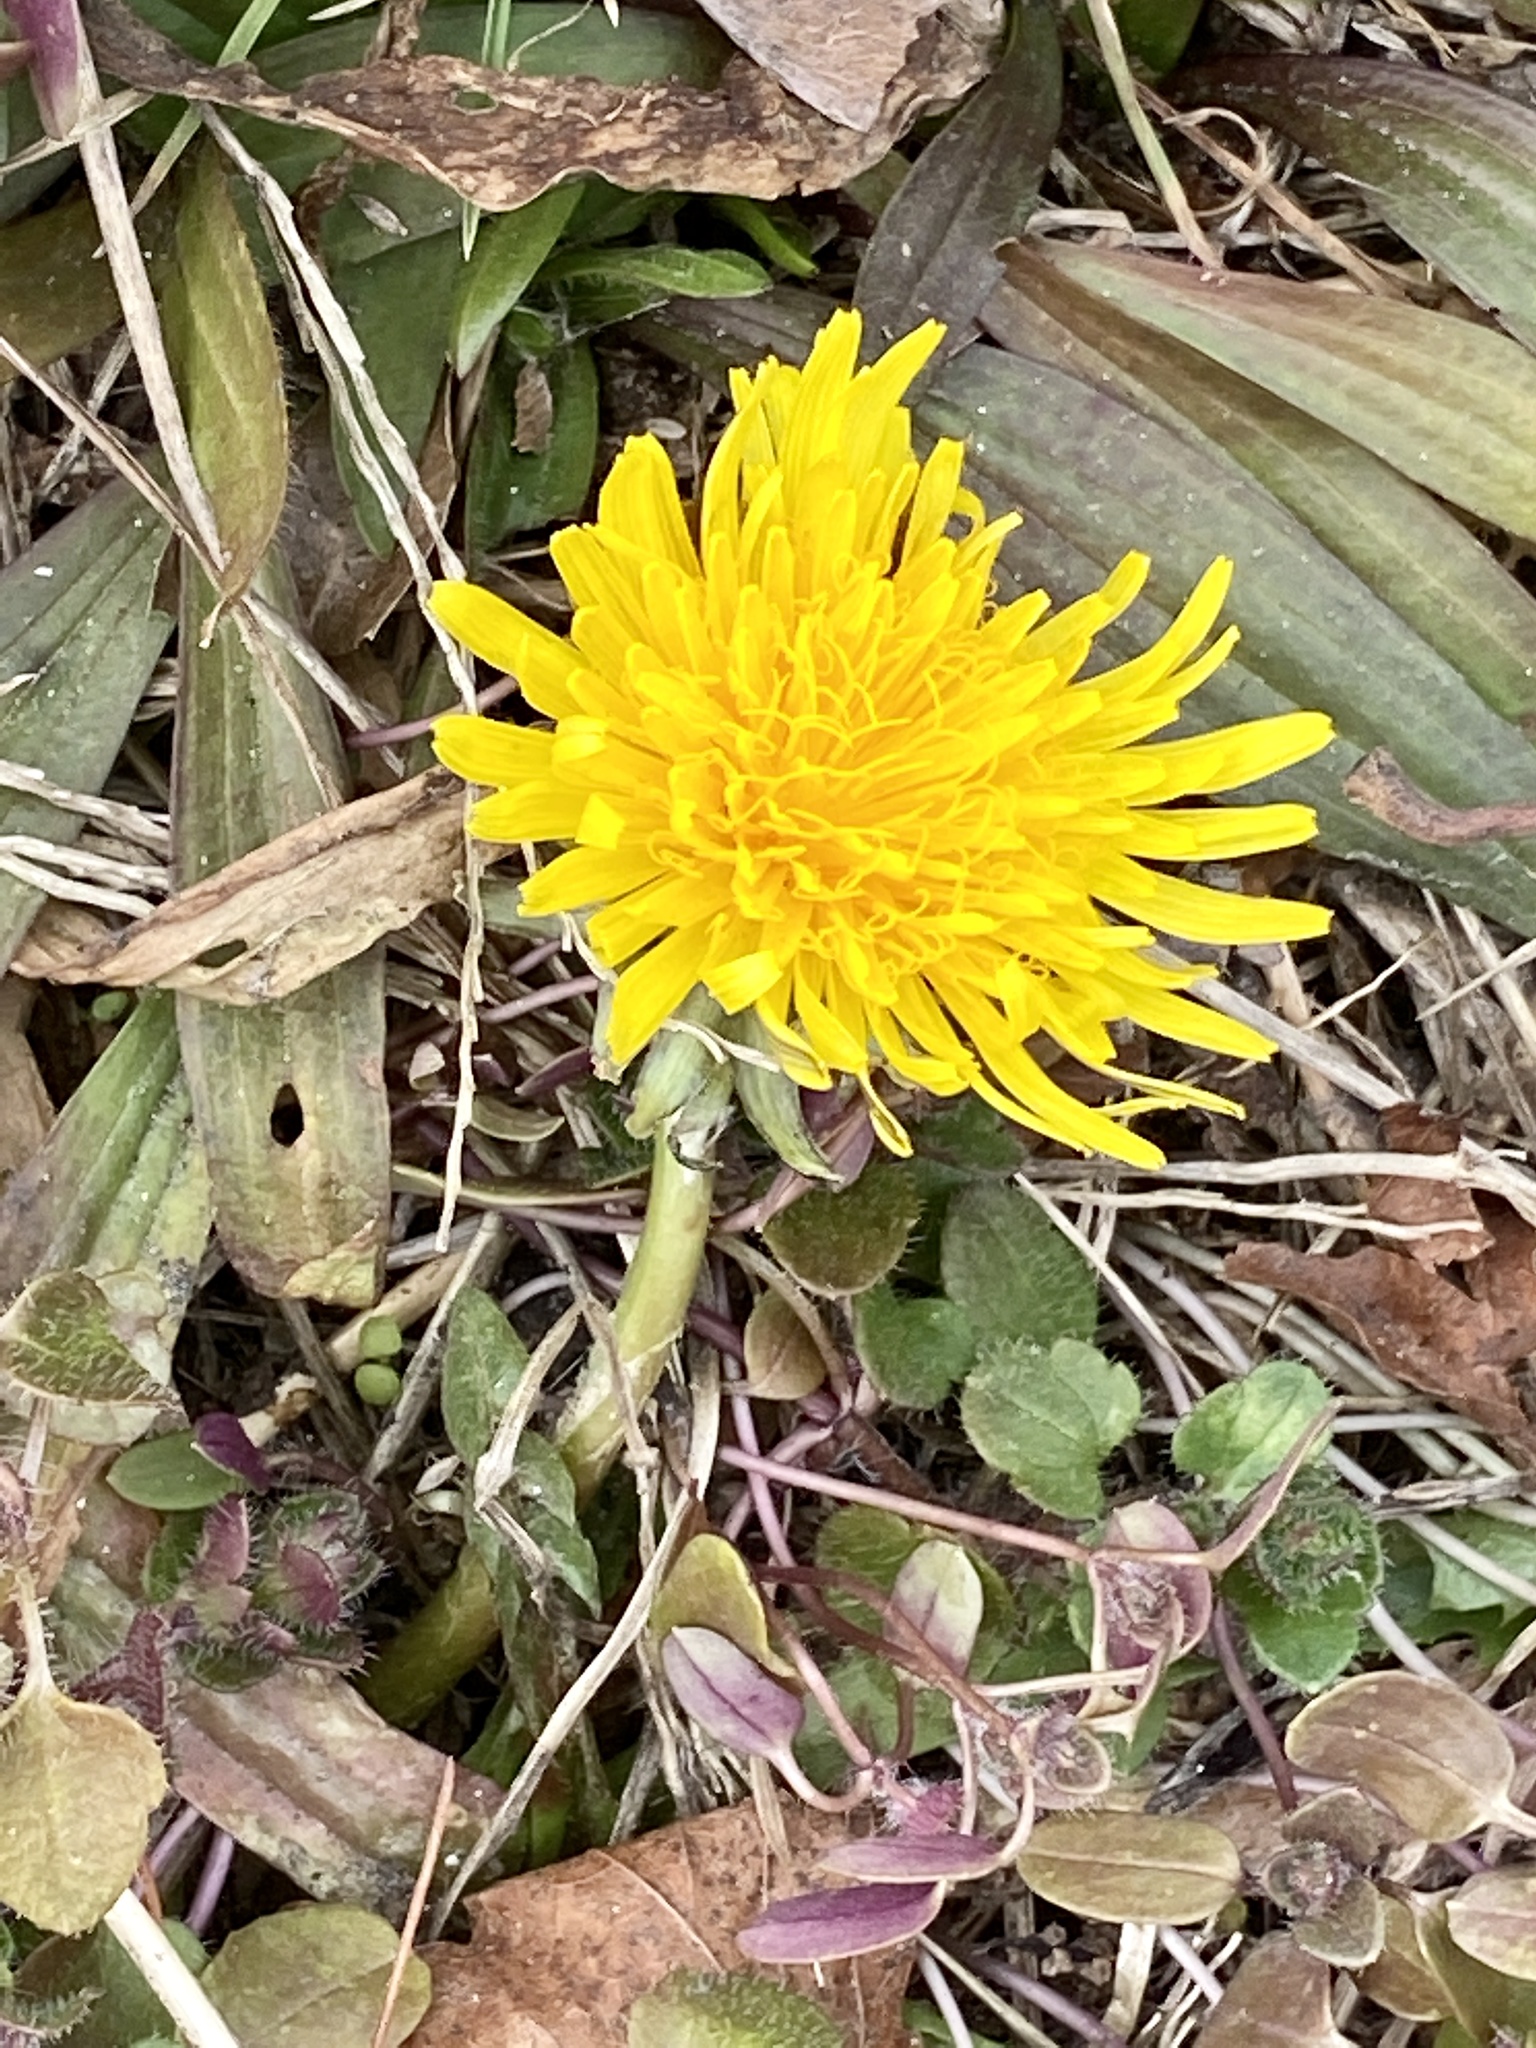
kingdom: Plantae
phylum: Tracheophyta
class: Magnoliopsida
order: Asterales
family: Asteraceae
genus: Taraxacum
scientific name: Taraxacum
